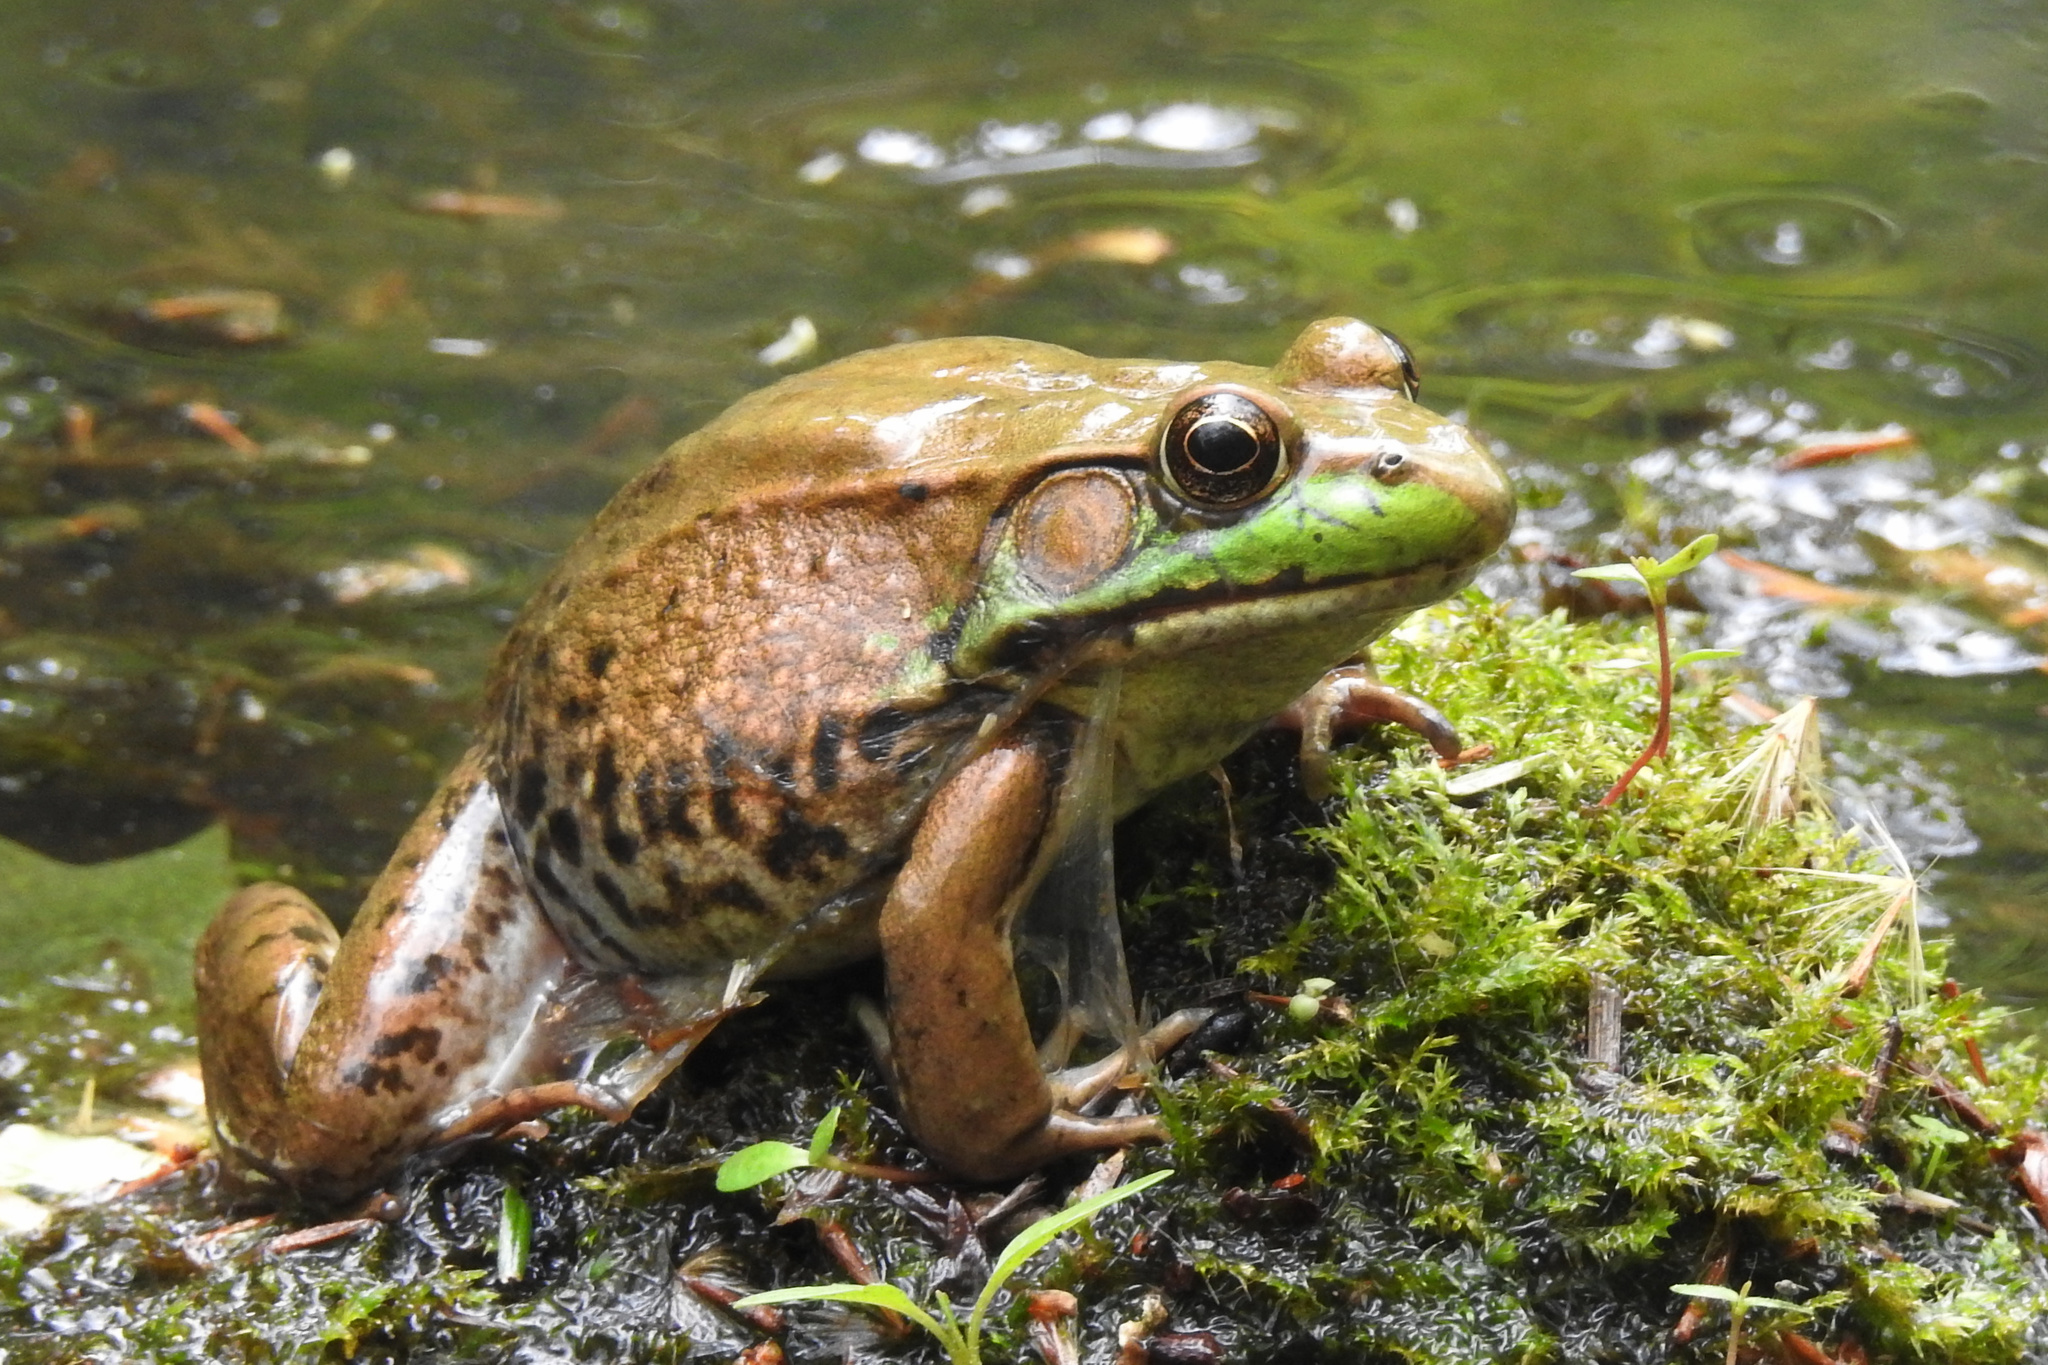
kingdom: Animalia
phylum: Chordata
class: Amphibia
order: Anura
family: Ranidae
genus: Lithobates
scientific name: Lithobates clamitans
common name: Green frog
